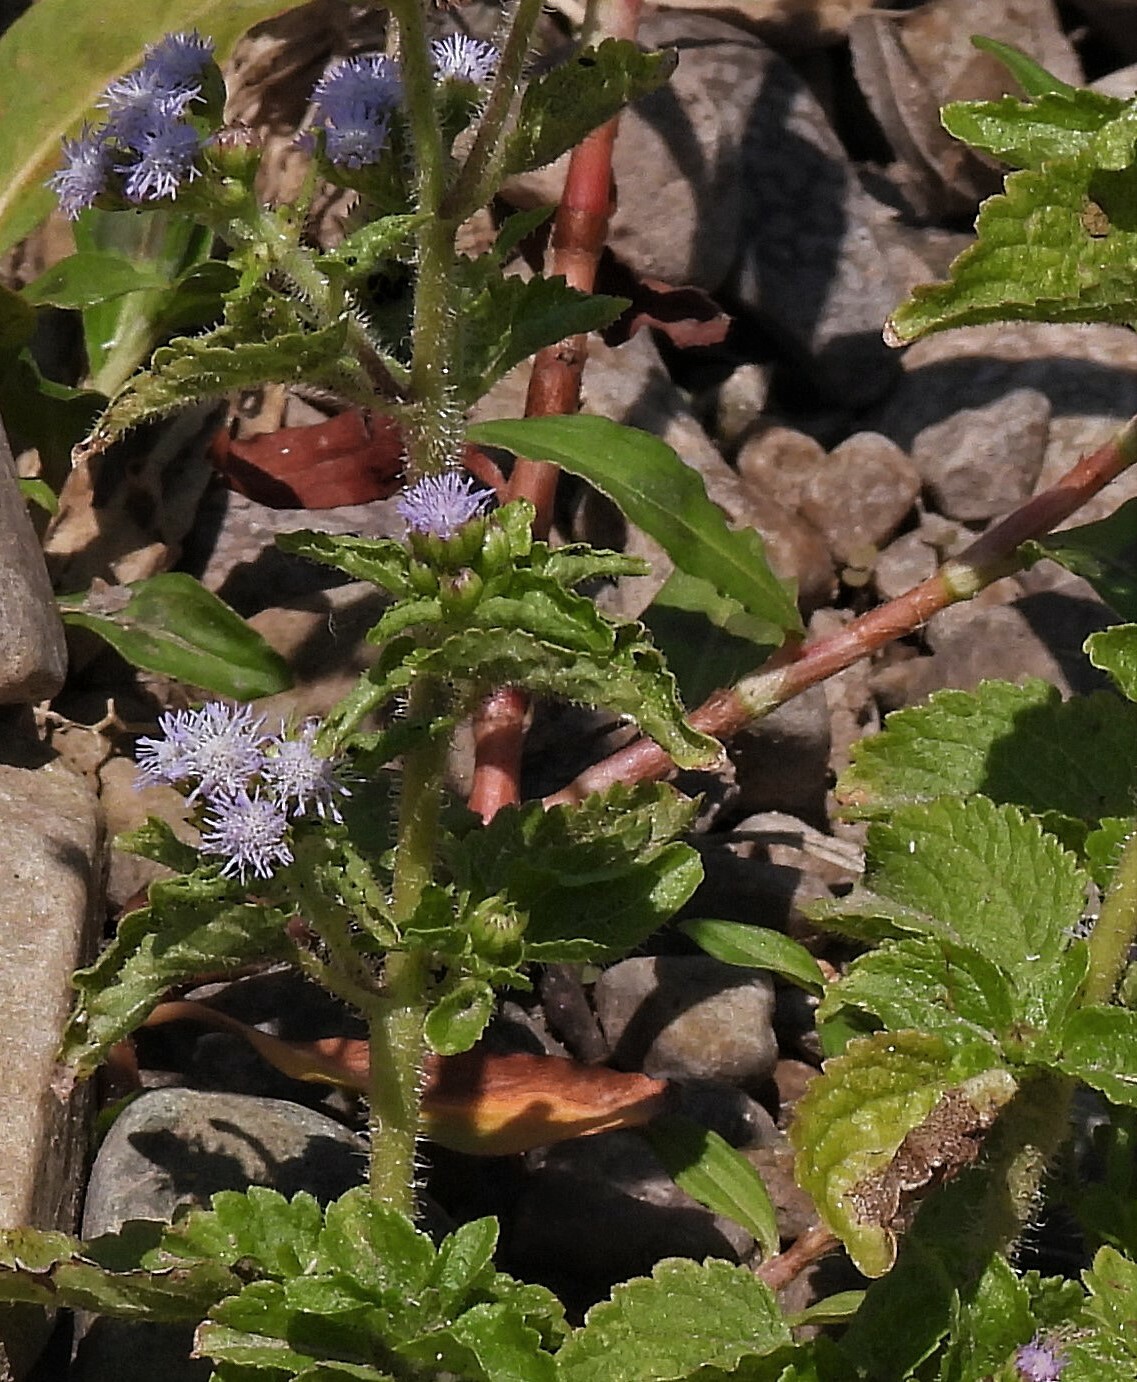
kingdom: Plantae
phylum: Tracheophyta
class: Magnoliopsida
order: Asterales
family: Asteraceae
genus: Ageratum
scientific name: Ageratum conyzoides
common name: Tropical whiteweed
